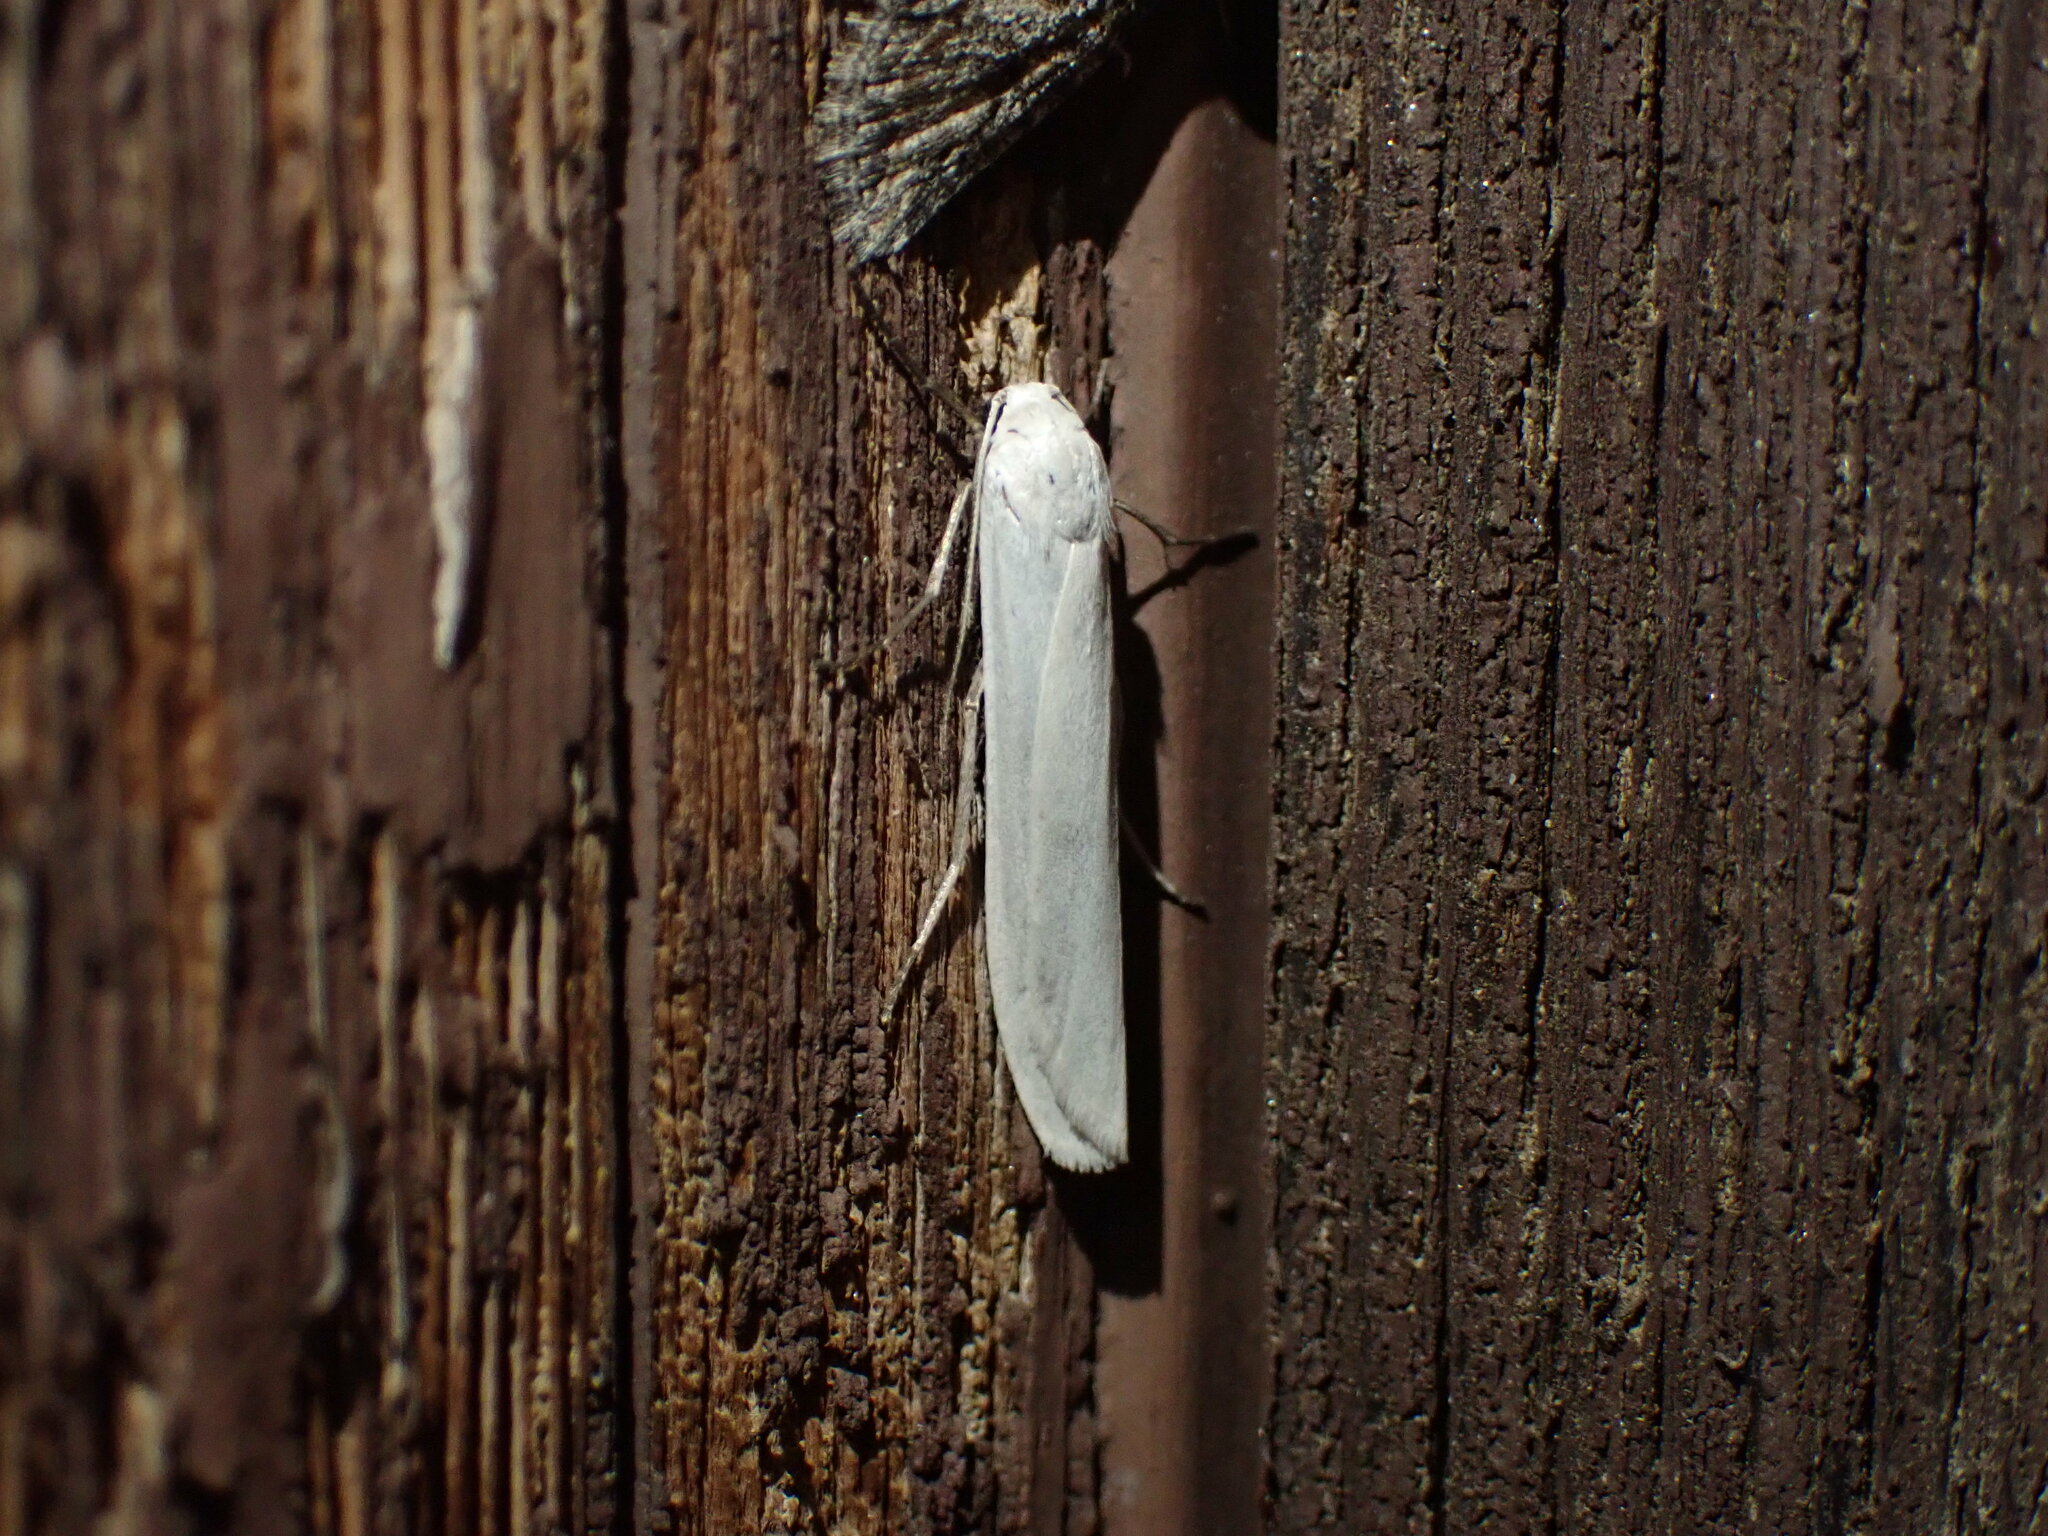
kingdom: Animalia
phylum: Arthropoda
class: Insecta
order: Lepidoptera
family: Erebidae
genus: Crambidia
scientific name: Crambidia casta
